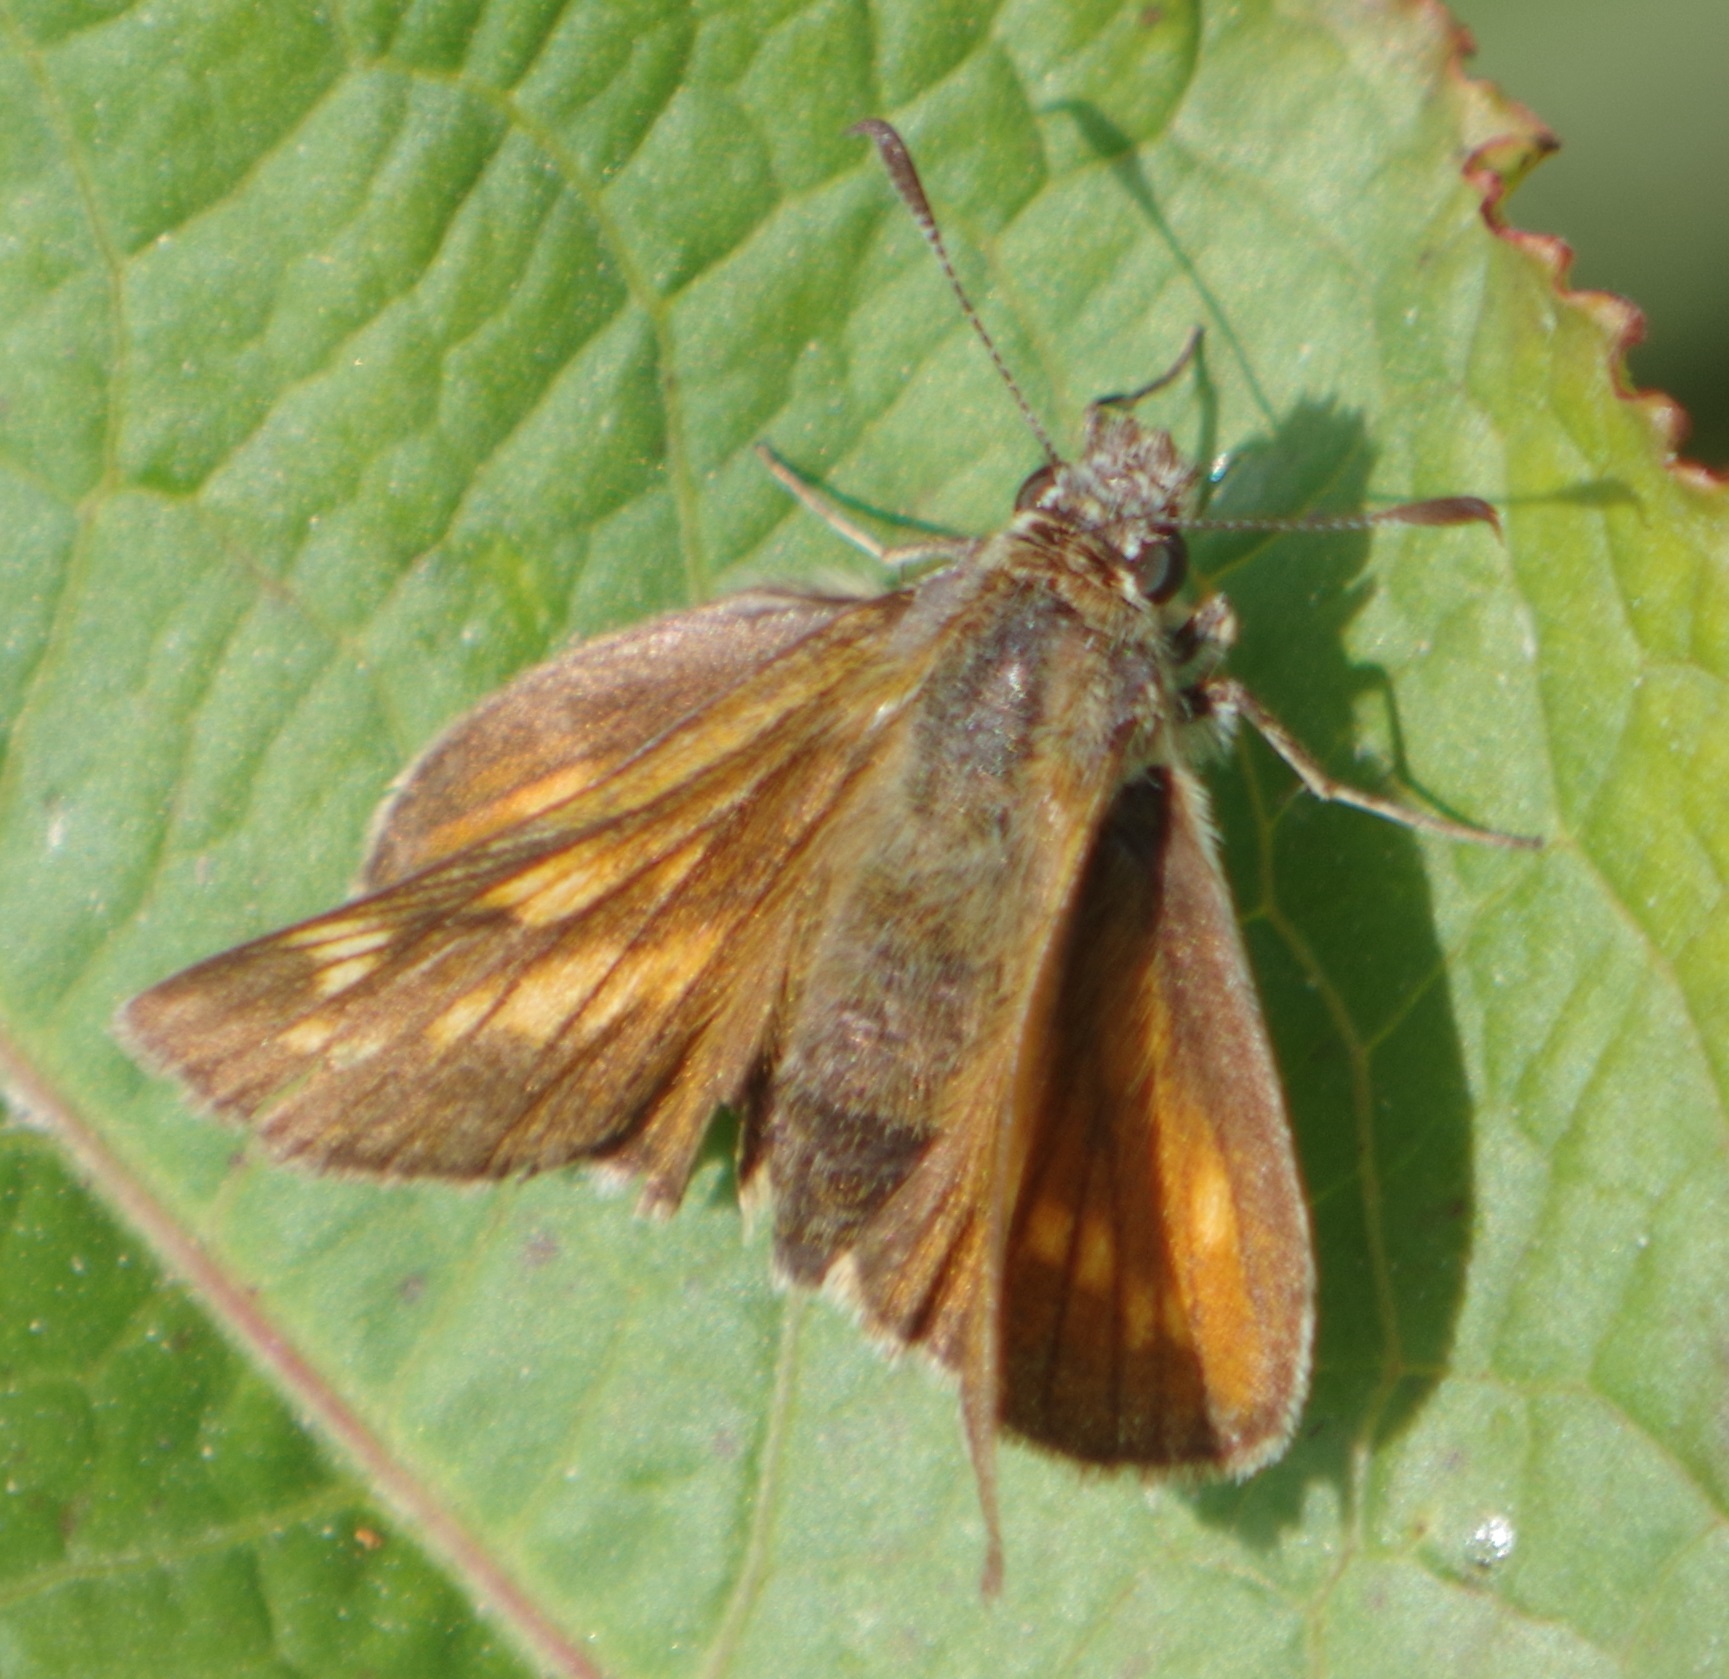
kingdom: Animalia
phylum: Arthropoda
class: Insecta
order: Lepidoptera
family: Hesperiidae
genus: Ochlodes
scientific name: Ochlodes venata
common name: Large skipper
